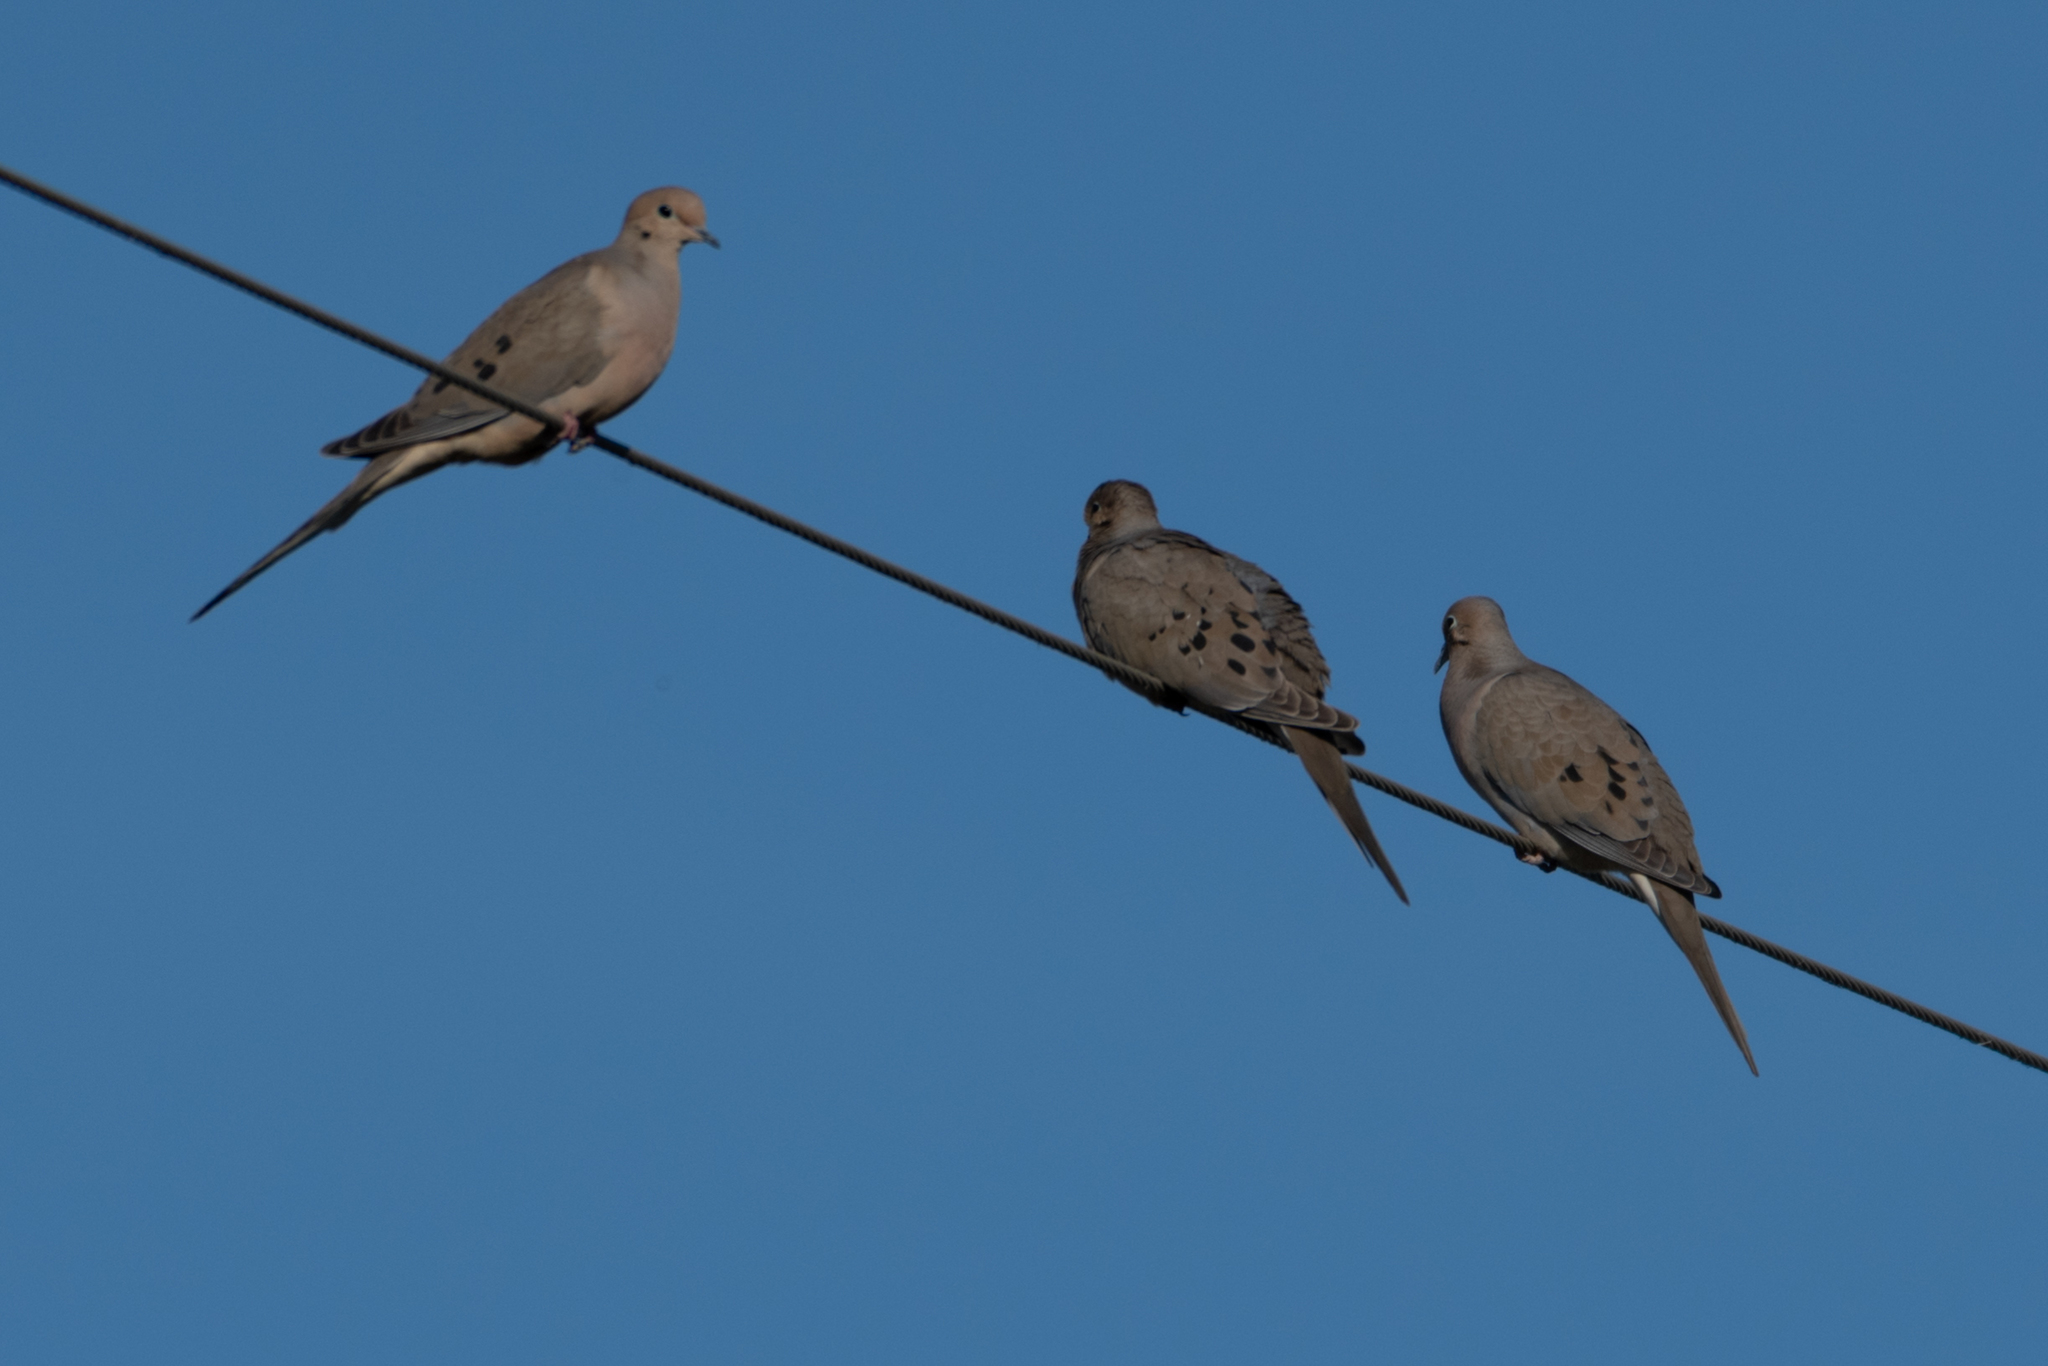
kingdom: Animalia
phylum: Chordata
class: Aves
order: Columbiformes
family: Columbidae
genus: Zenaida
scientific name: Zenaida macroura
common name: Mourning dove
